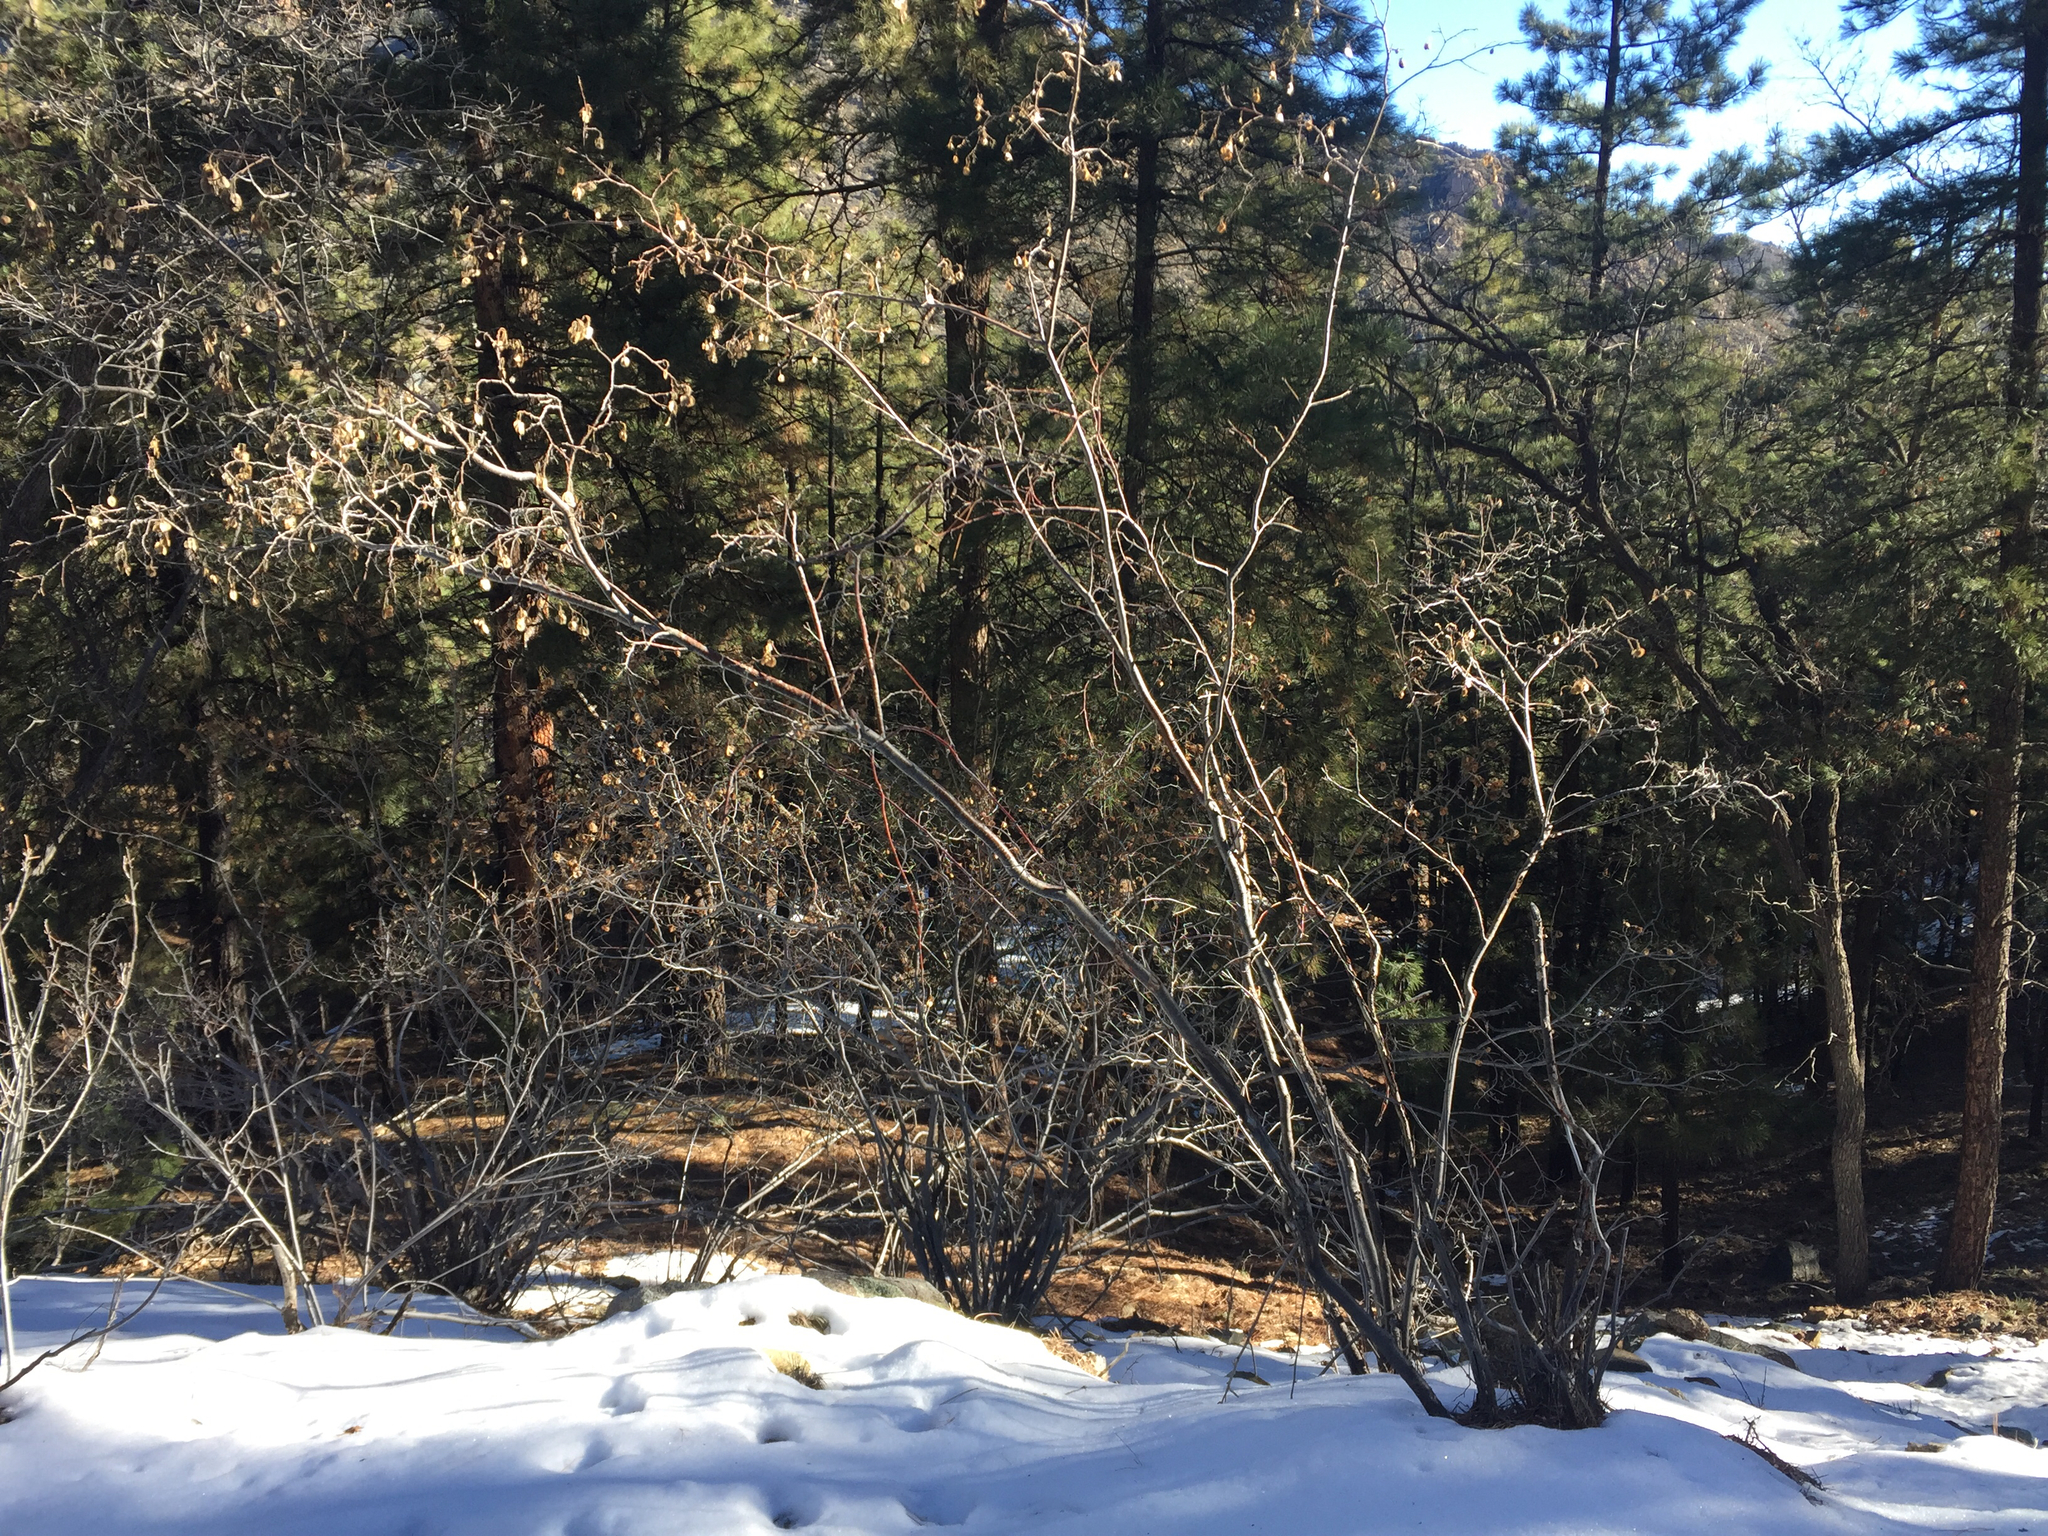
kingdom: Plantae
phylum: Tracheophyta
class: Magnoliopsida
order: Sapindales
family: Rutaceae
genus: Ptelea
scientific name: Ptelea trifoliata
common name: Common hop-tree
